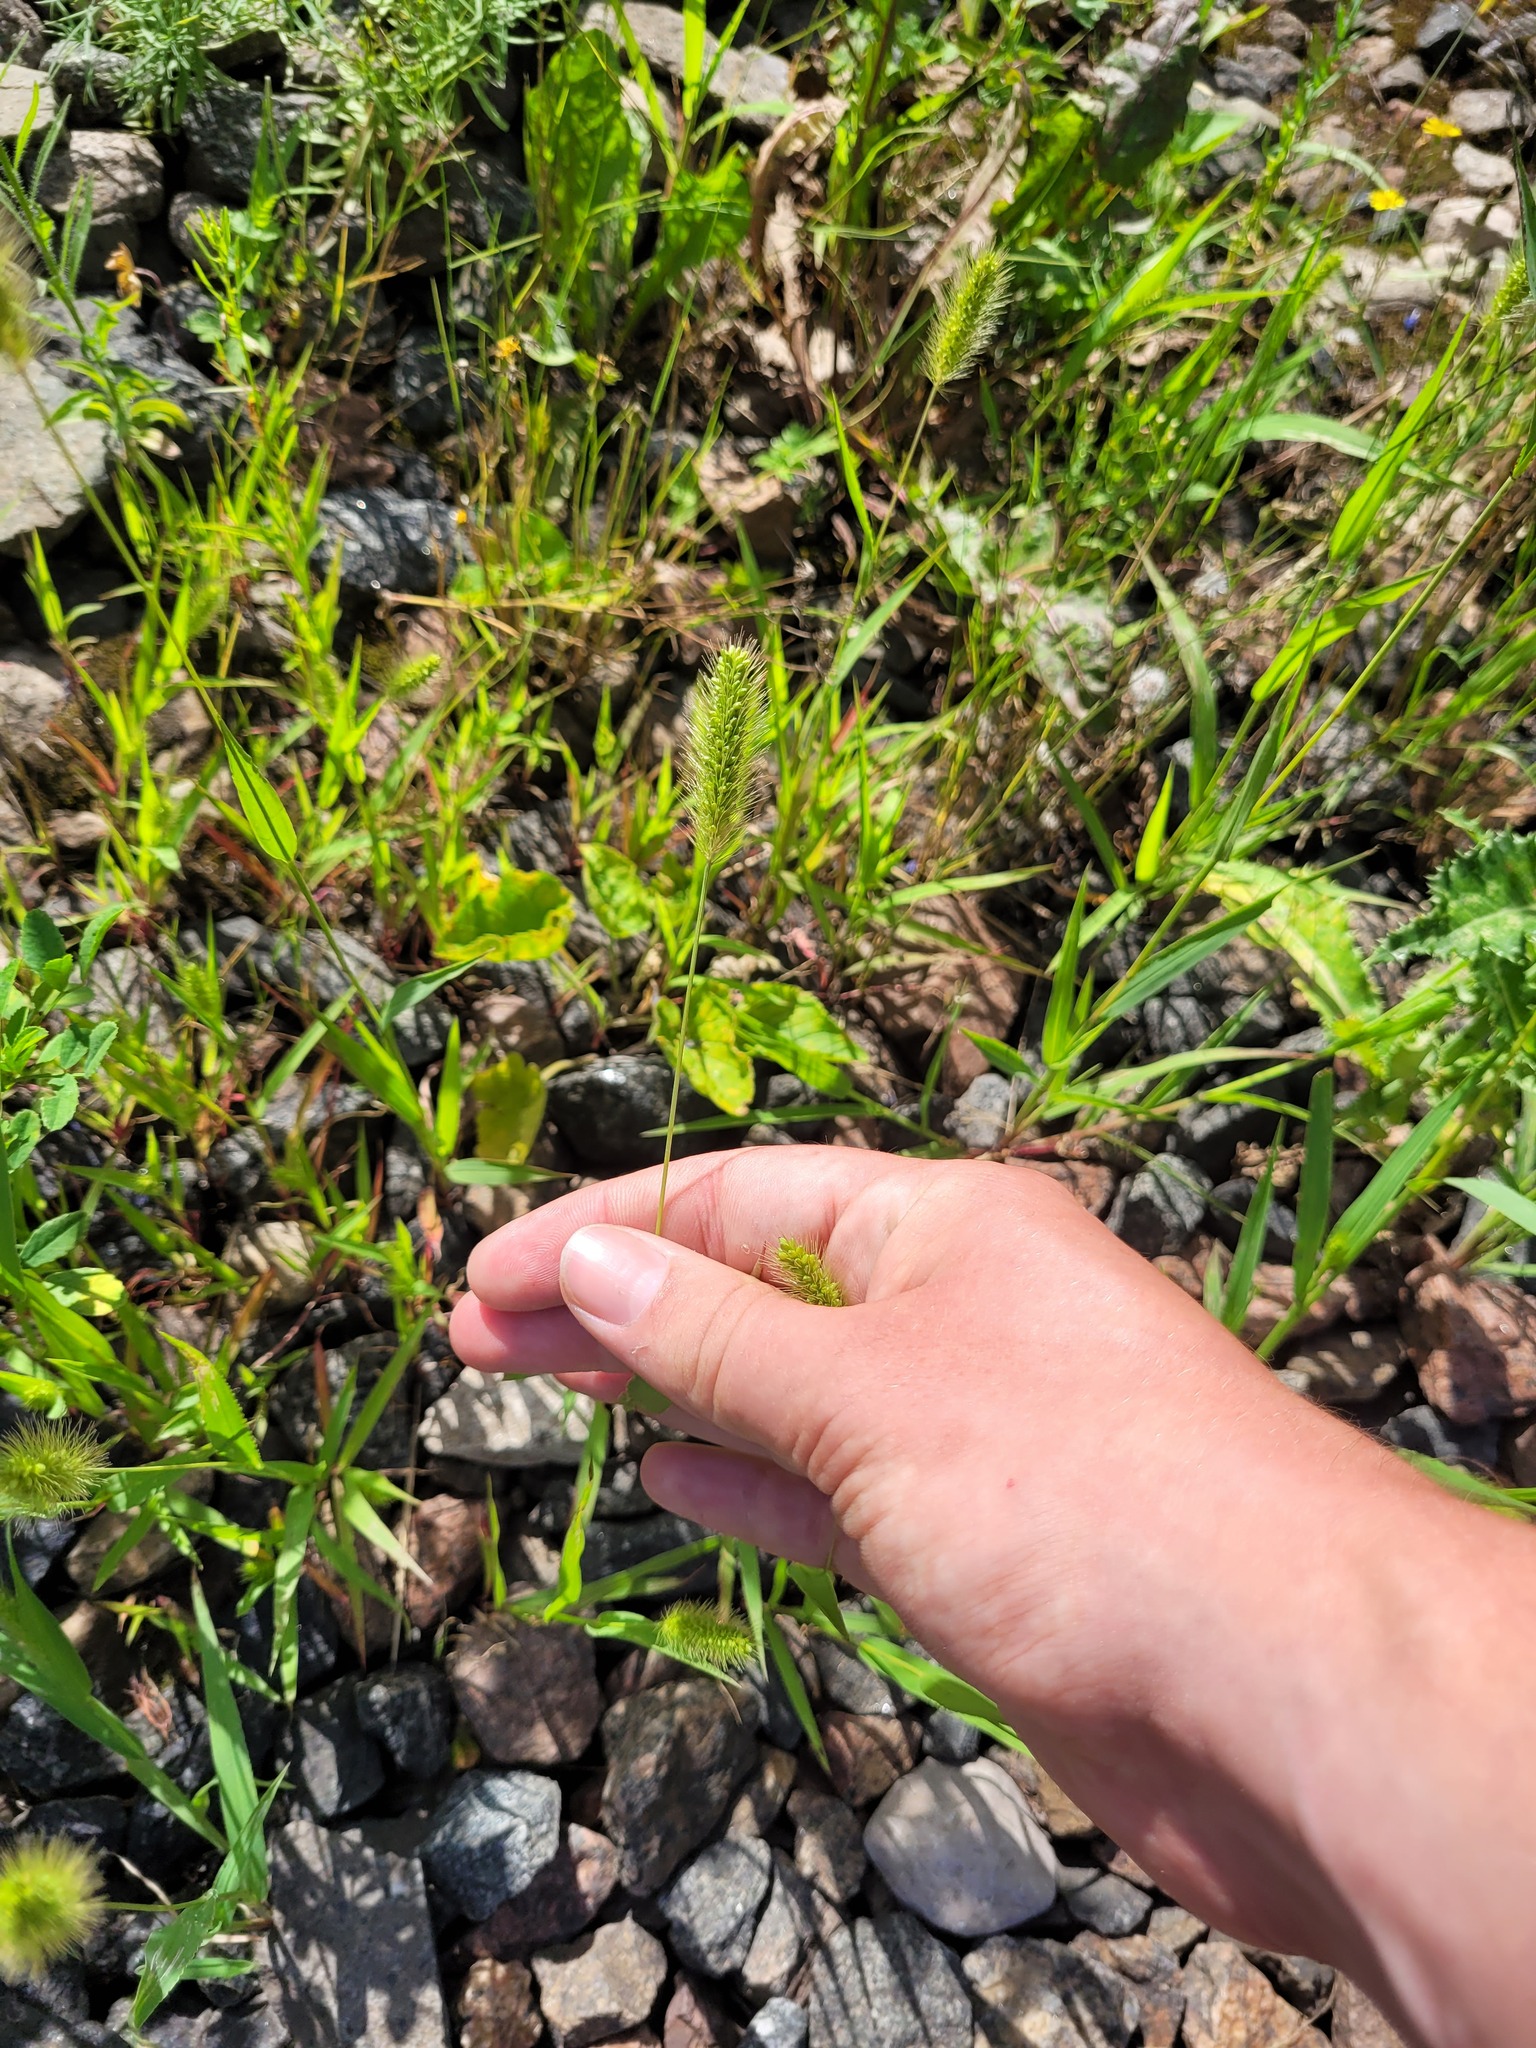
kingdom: Plantae
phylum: Tracheophyta
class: Liliopsida
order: Poales
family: Poaceae
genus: Setaria
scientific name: Setaria viridis
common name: Green bristlegrass
